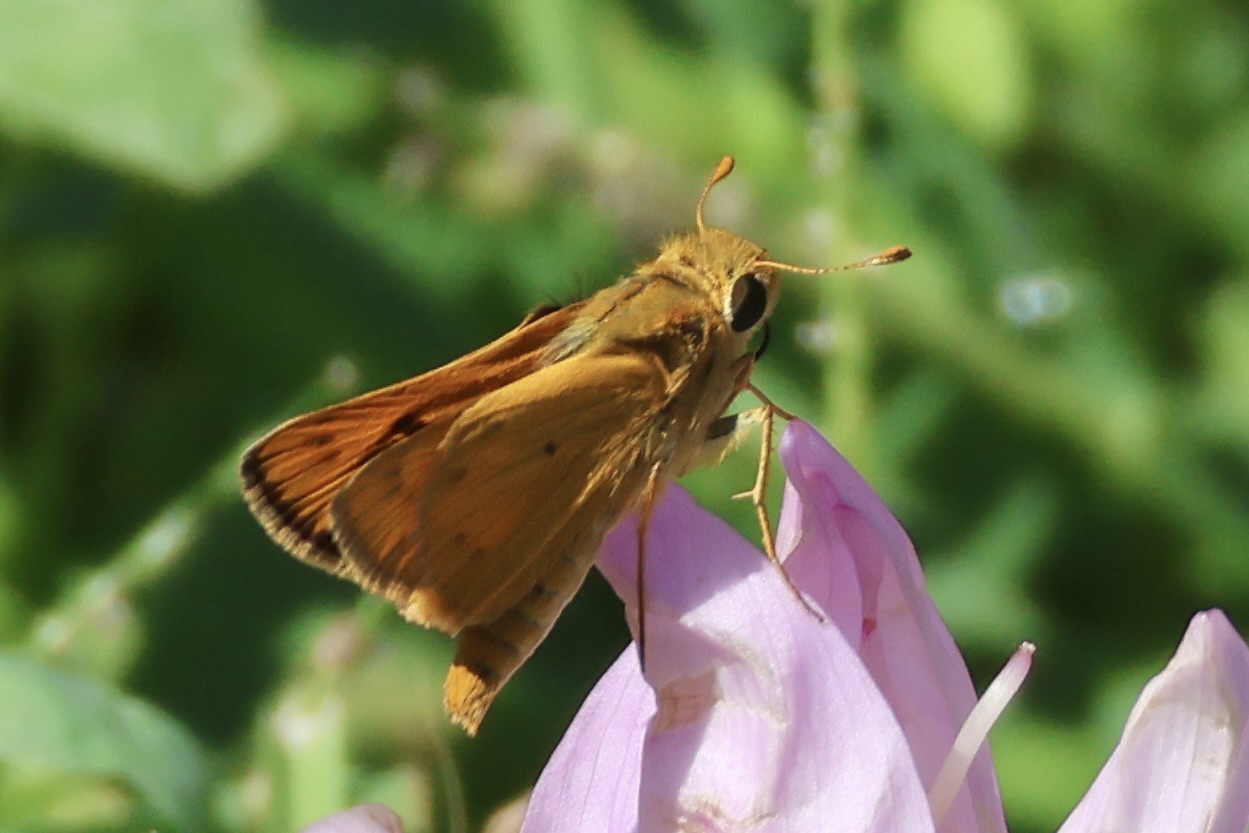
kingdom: Animalia
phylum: Arthropoda
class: Insecta
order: Lepidoptera
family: Hesperiidae
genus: Hylephila
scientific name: Hylephila phyleus
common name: Fiery skipper
